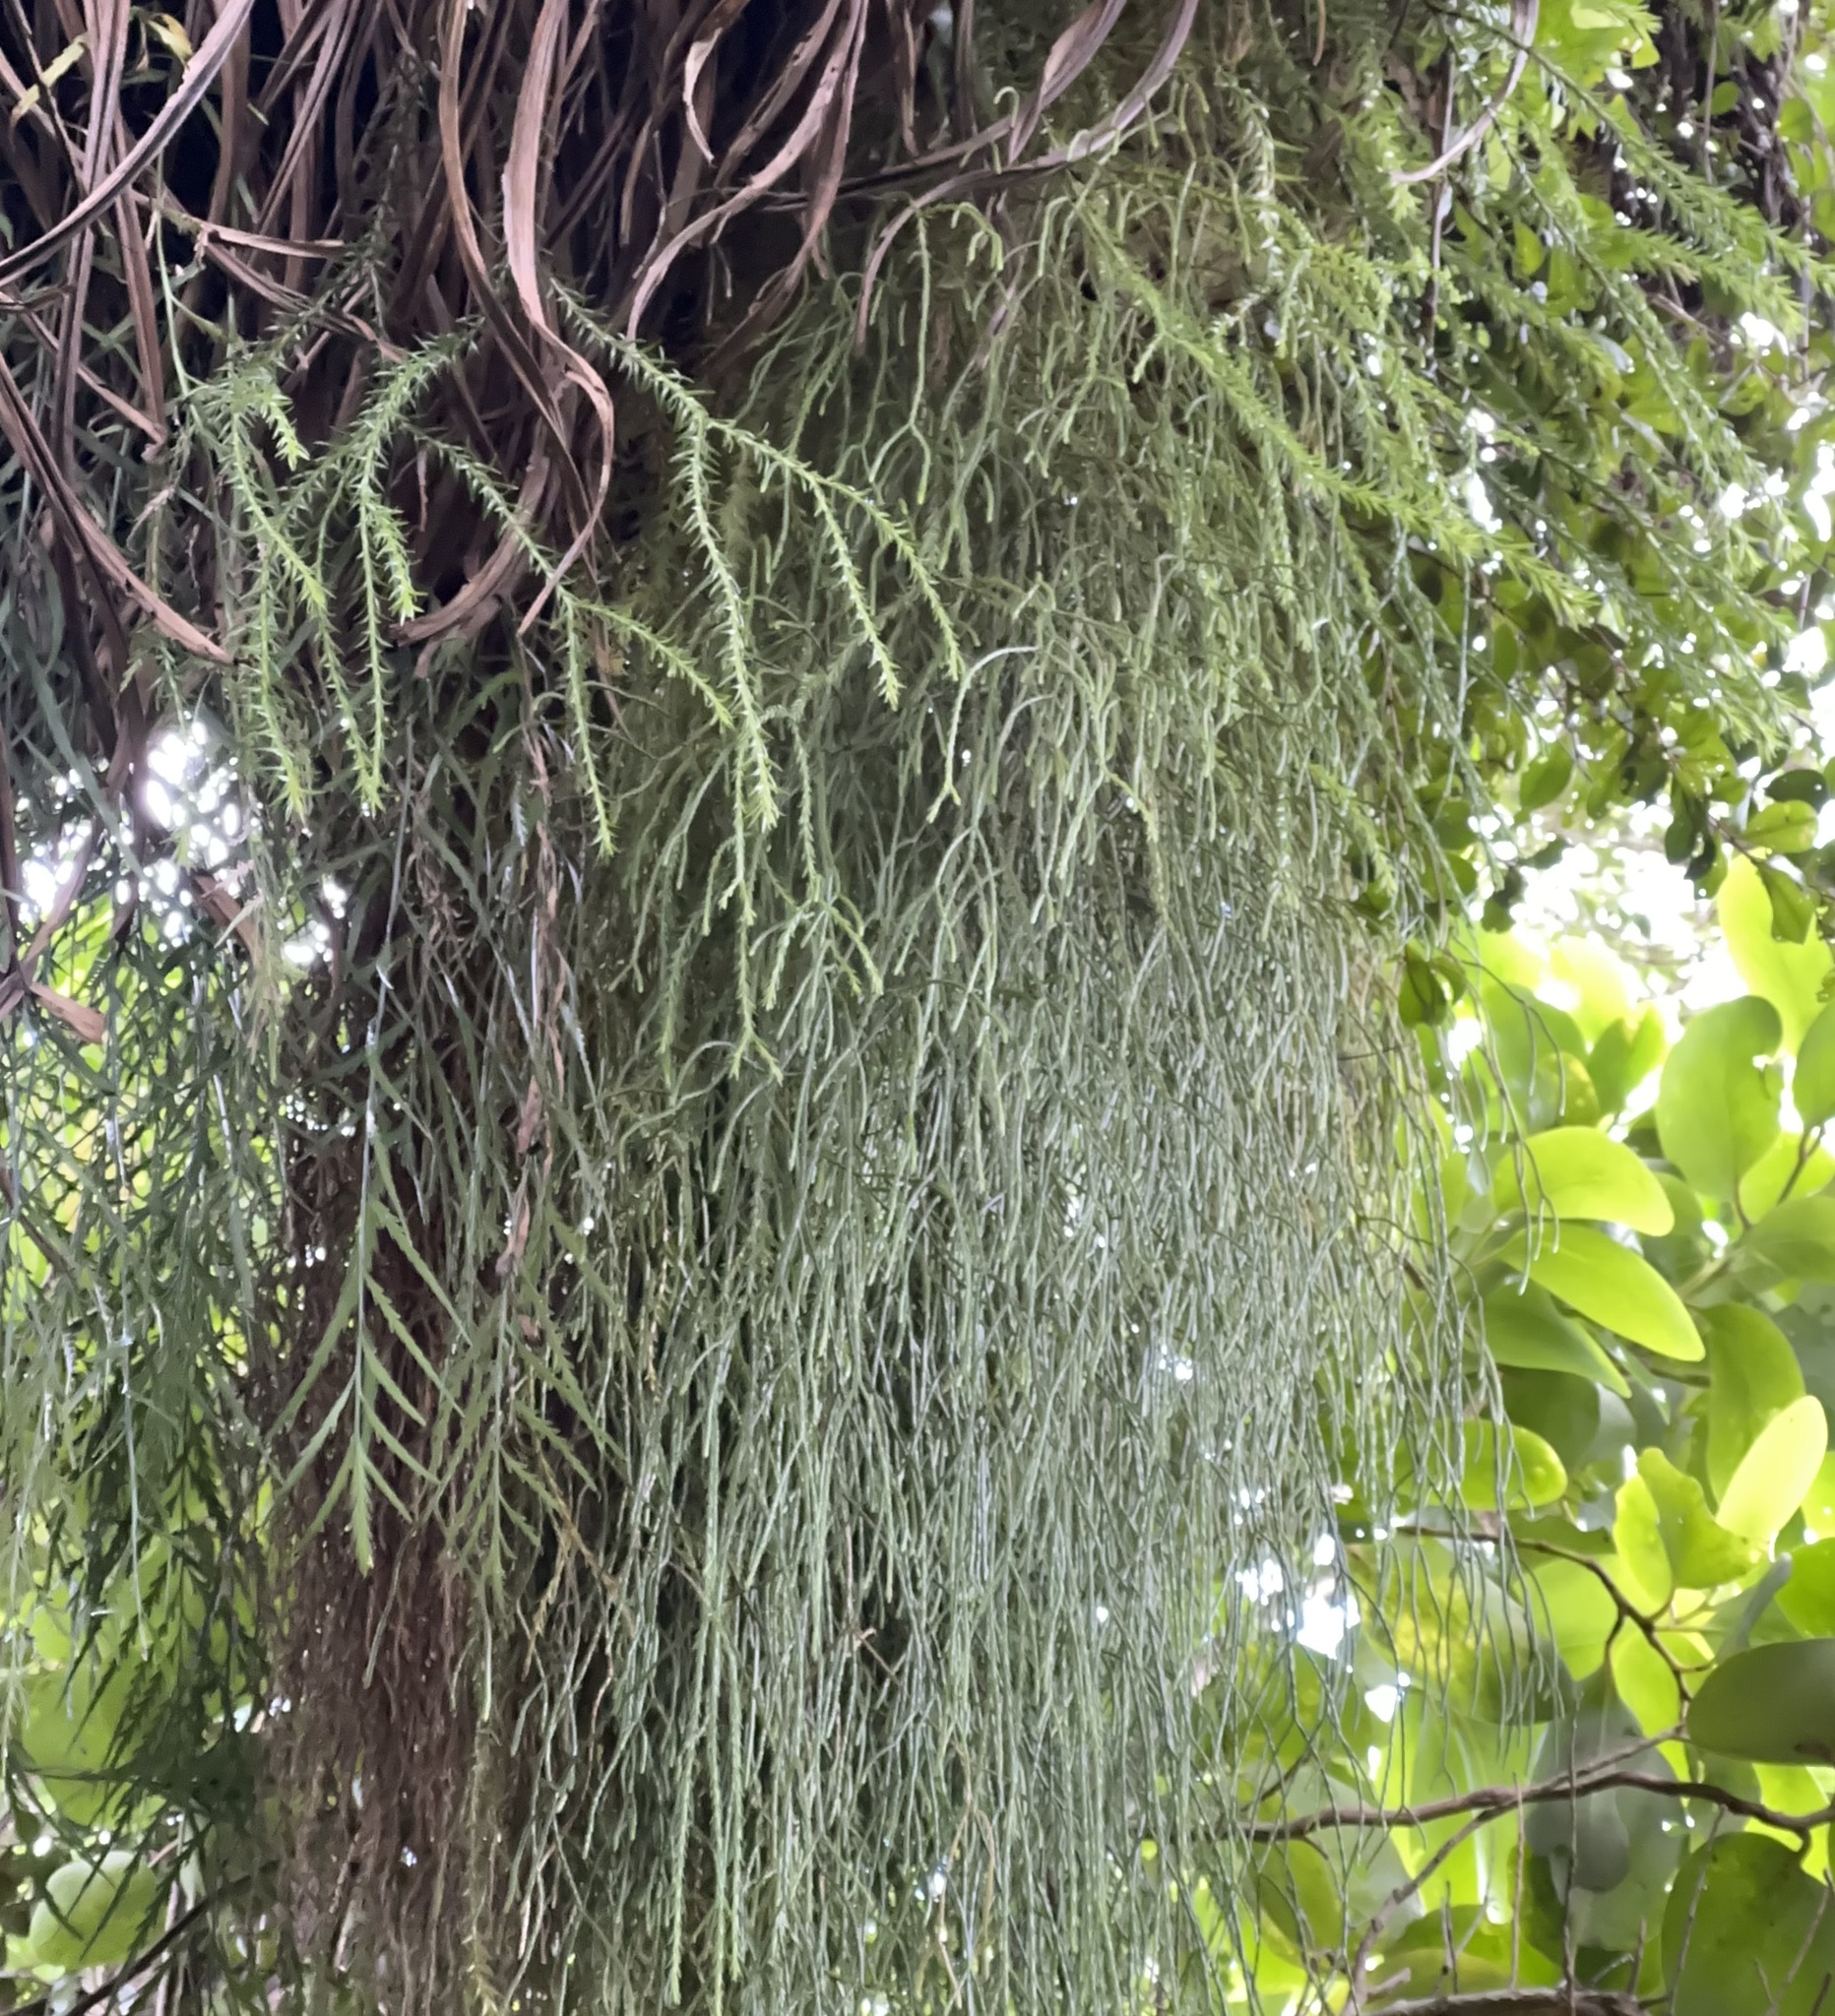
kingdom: Plantae
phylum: Tracheophyta
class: Lycopodiopsida
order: Lycopodiales
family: Lycopodiaceae
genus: Phlegmariurus
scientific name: Phlegmariurus billardierei
